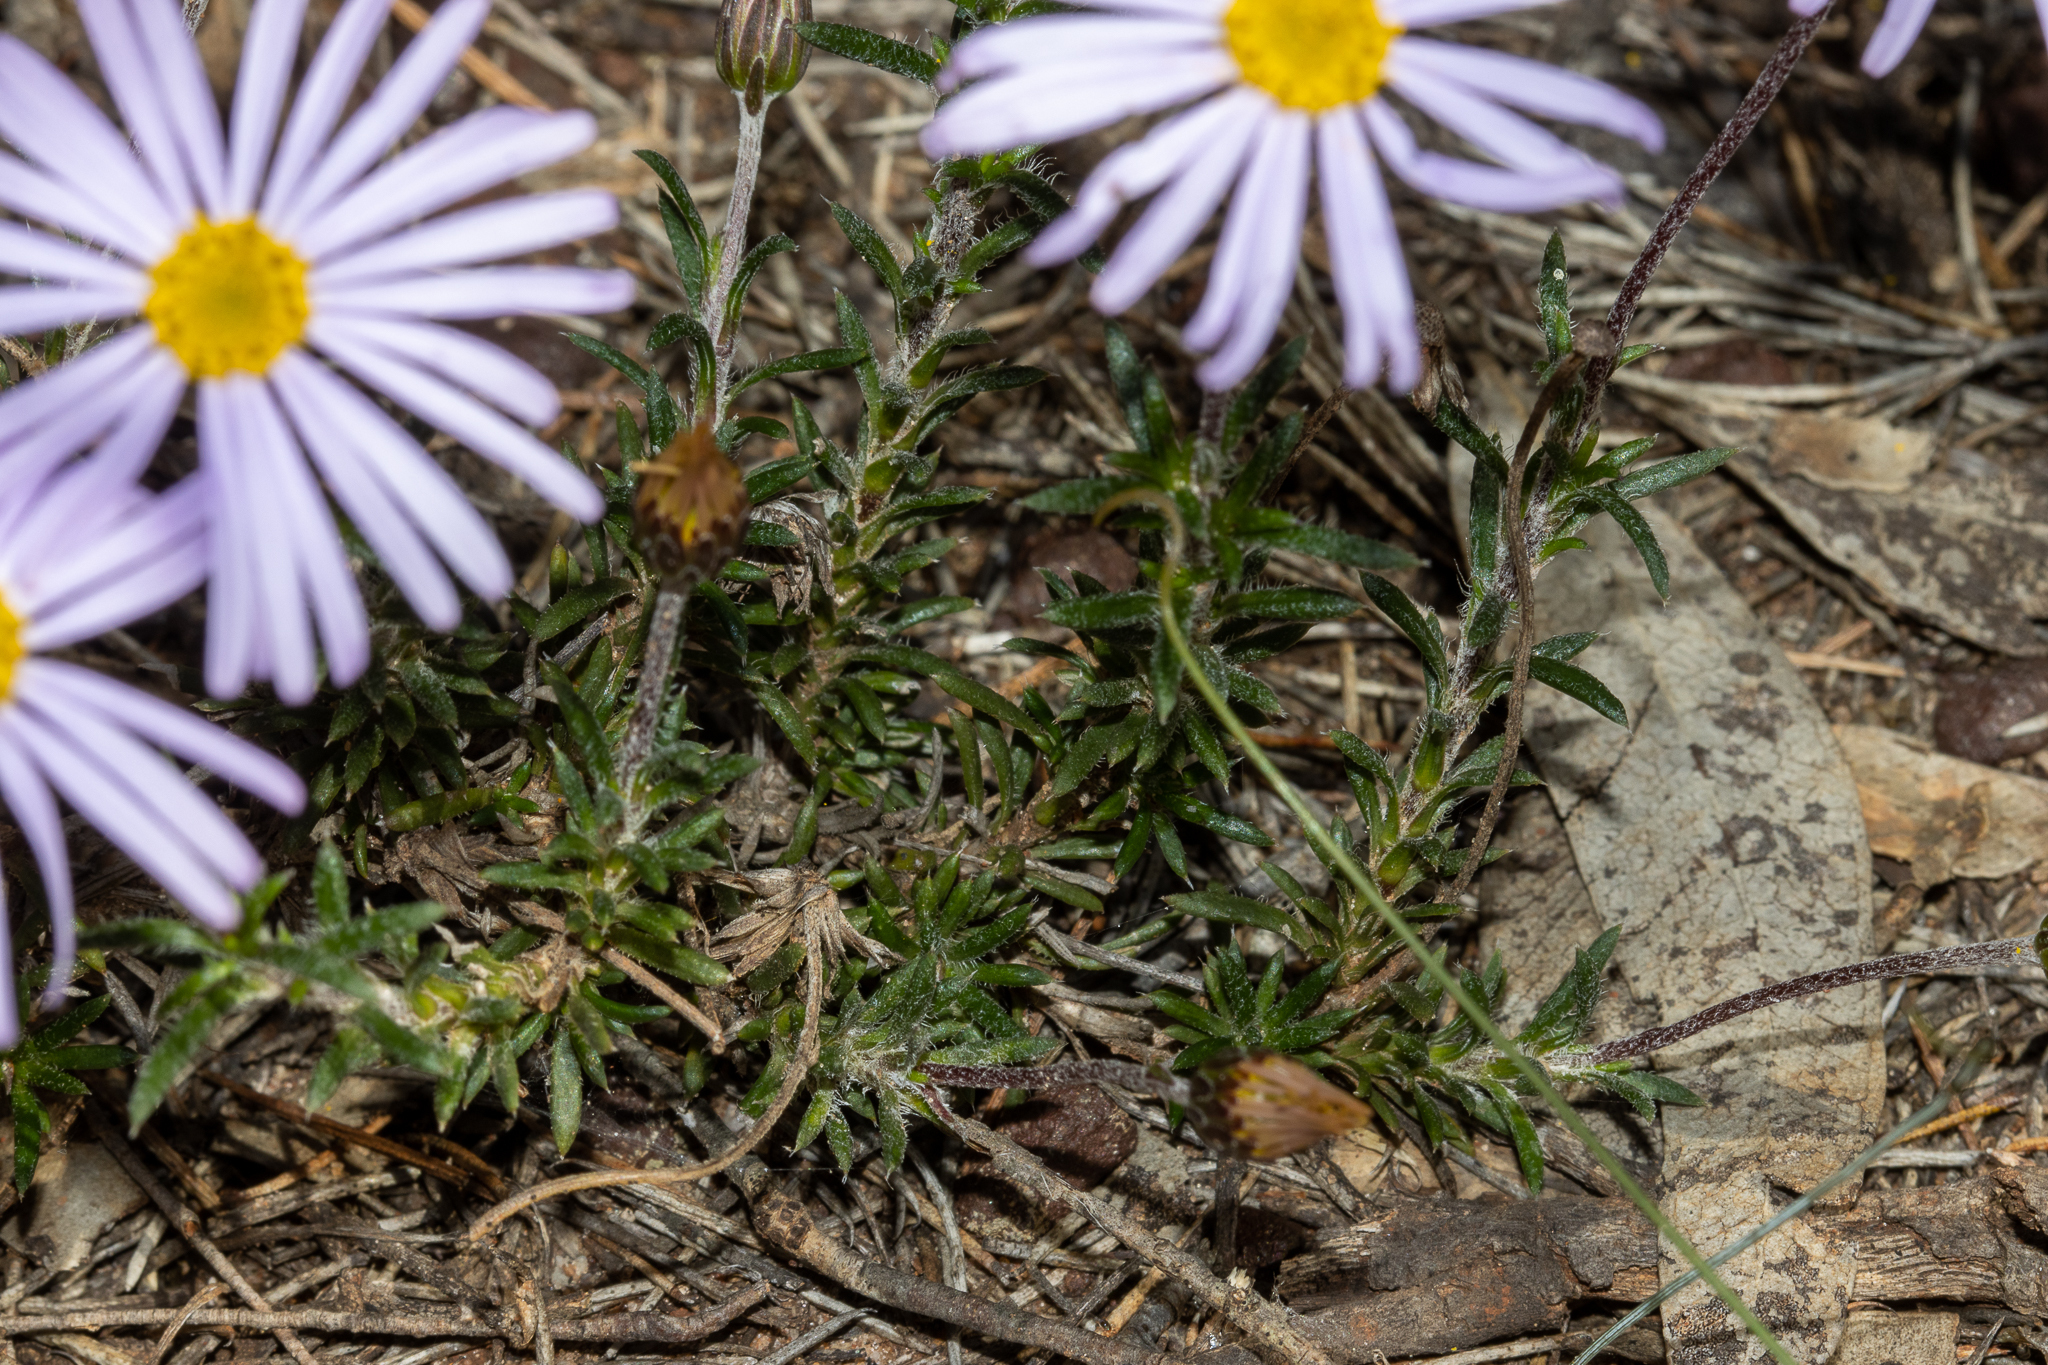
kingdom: Plantae
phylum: Tracheophyta
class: Magnoliopsida
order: Asterales
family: Asteraceae
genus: Olearia
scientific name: Olearia ciliata
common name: Fringed daisybush
